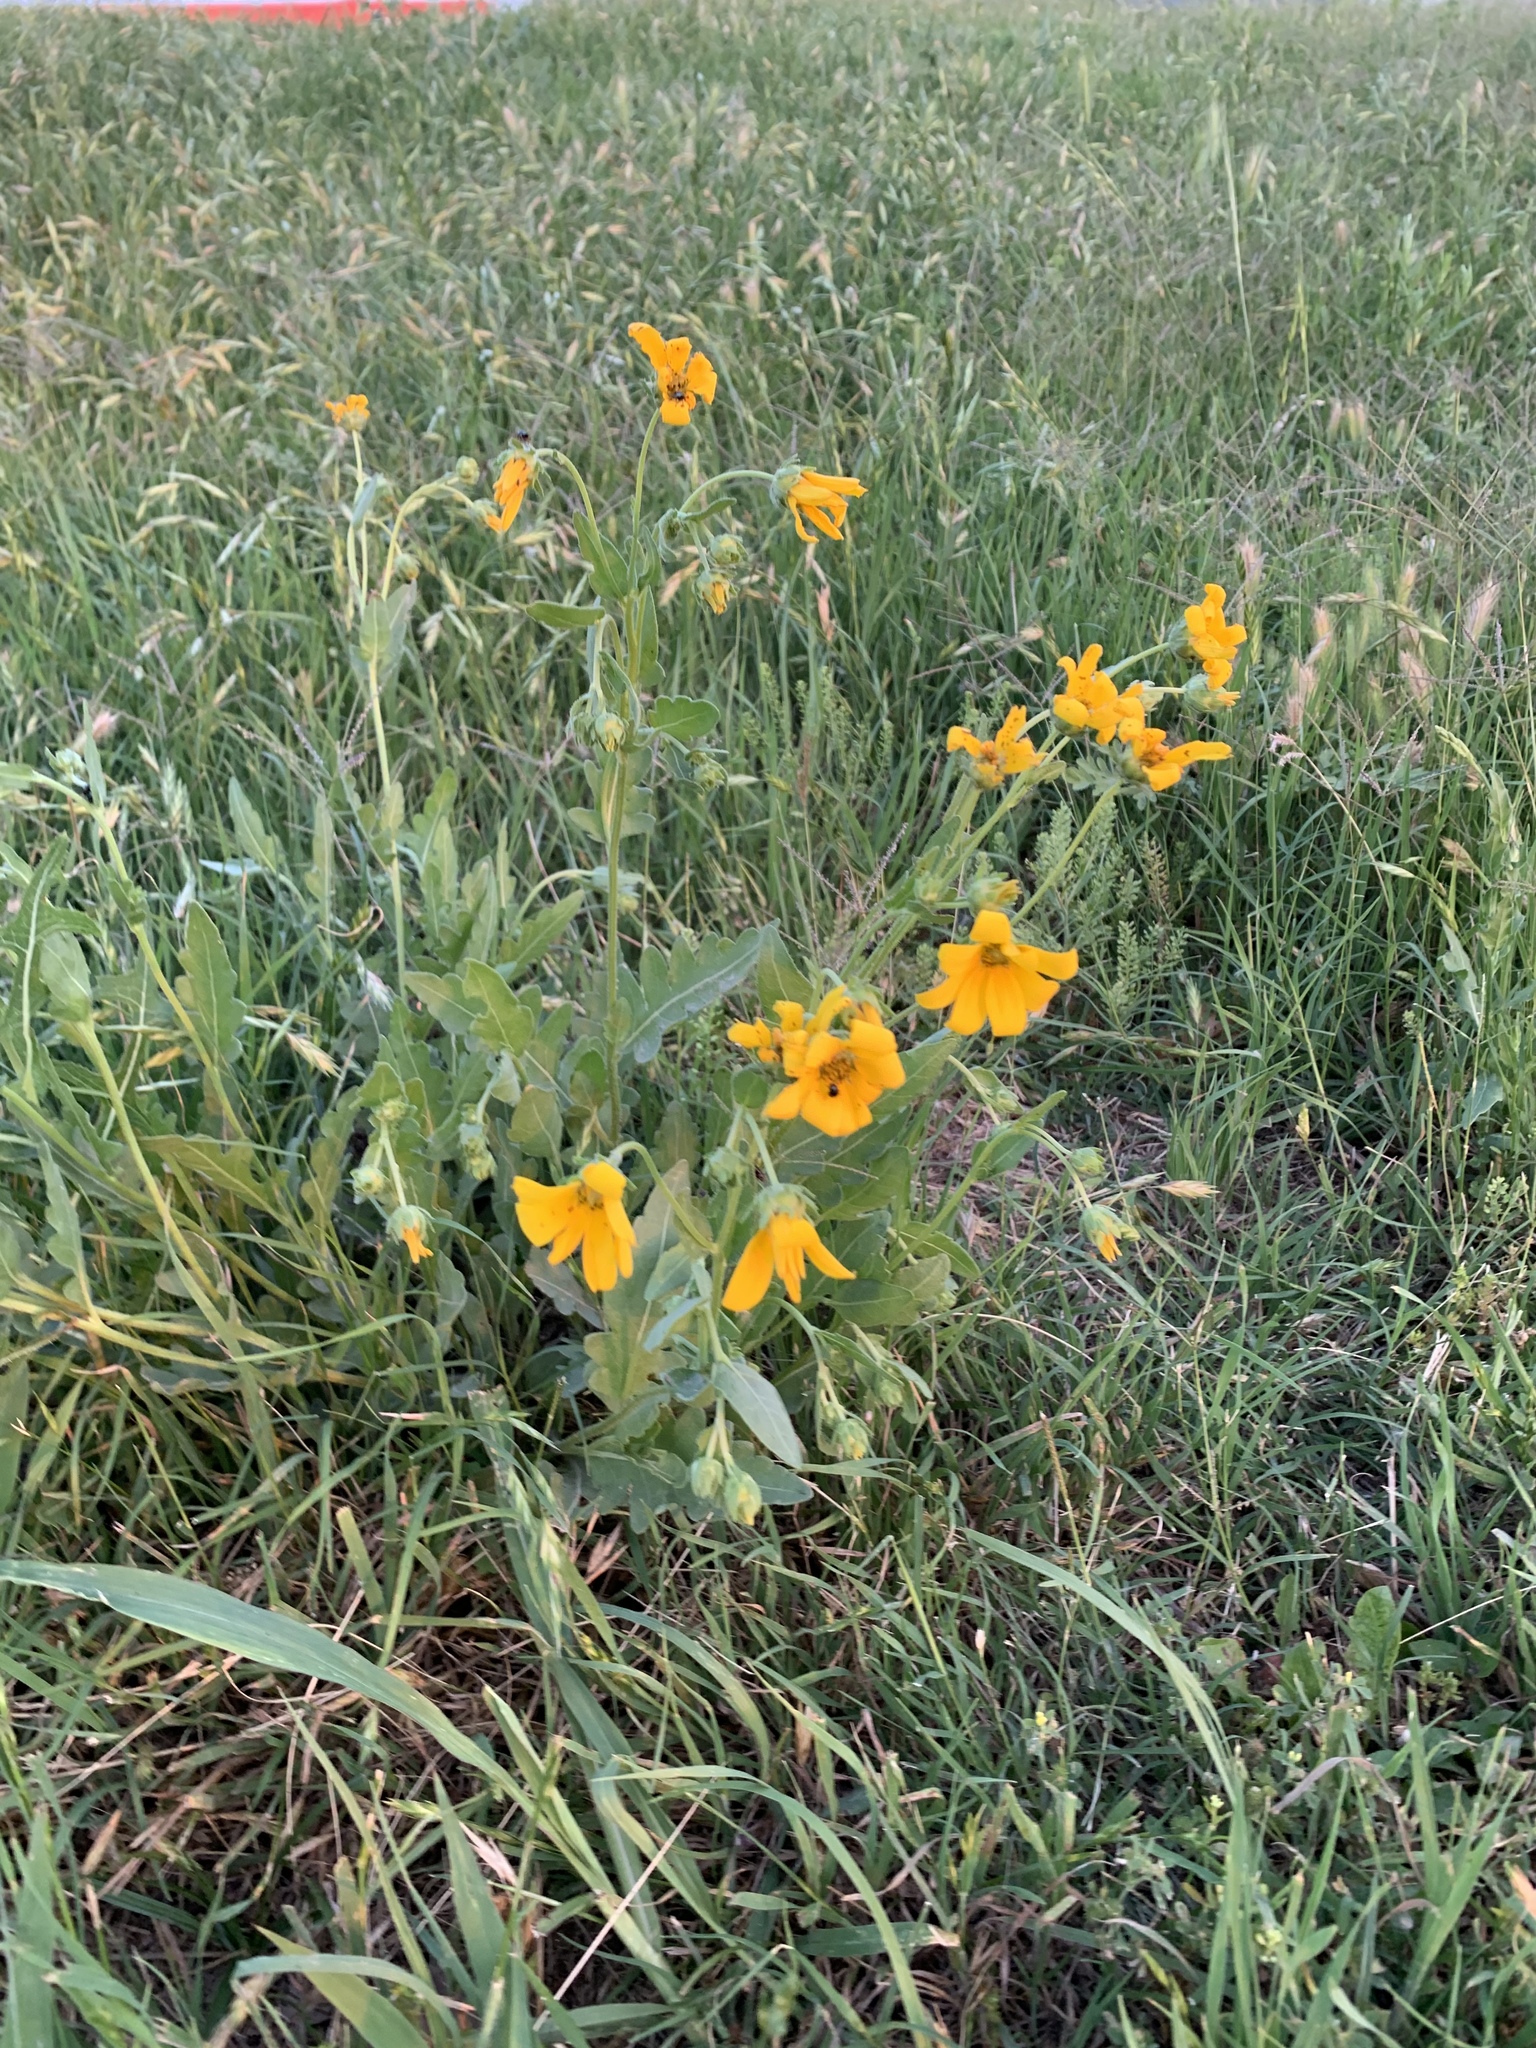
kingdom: Plantae
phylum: Tracheophyta
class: Magnoliopsida
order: Asterales
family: Asteraceae
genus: Engelmannia
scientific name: Engelmannia peristenia
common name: Engelmann's daisy
